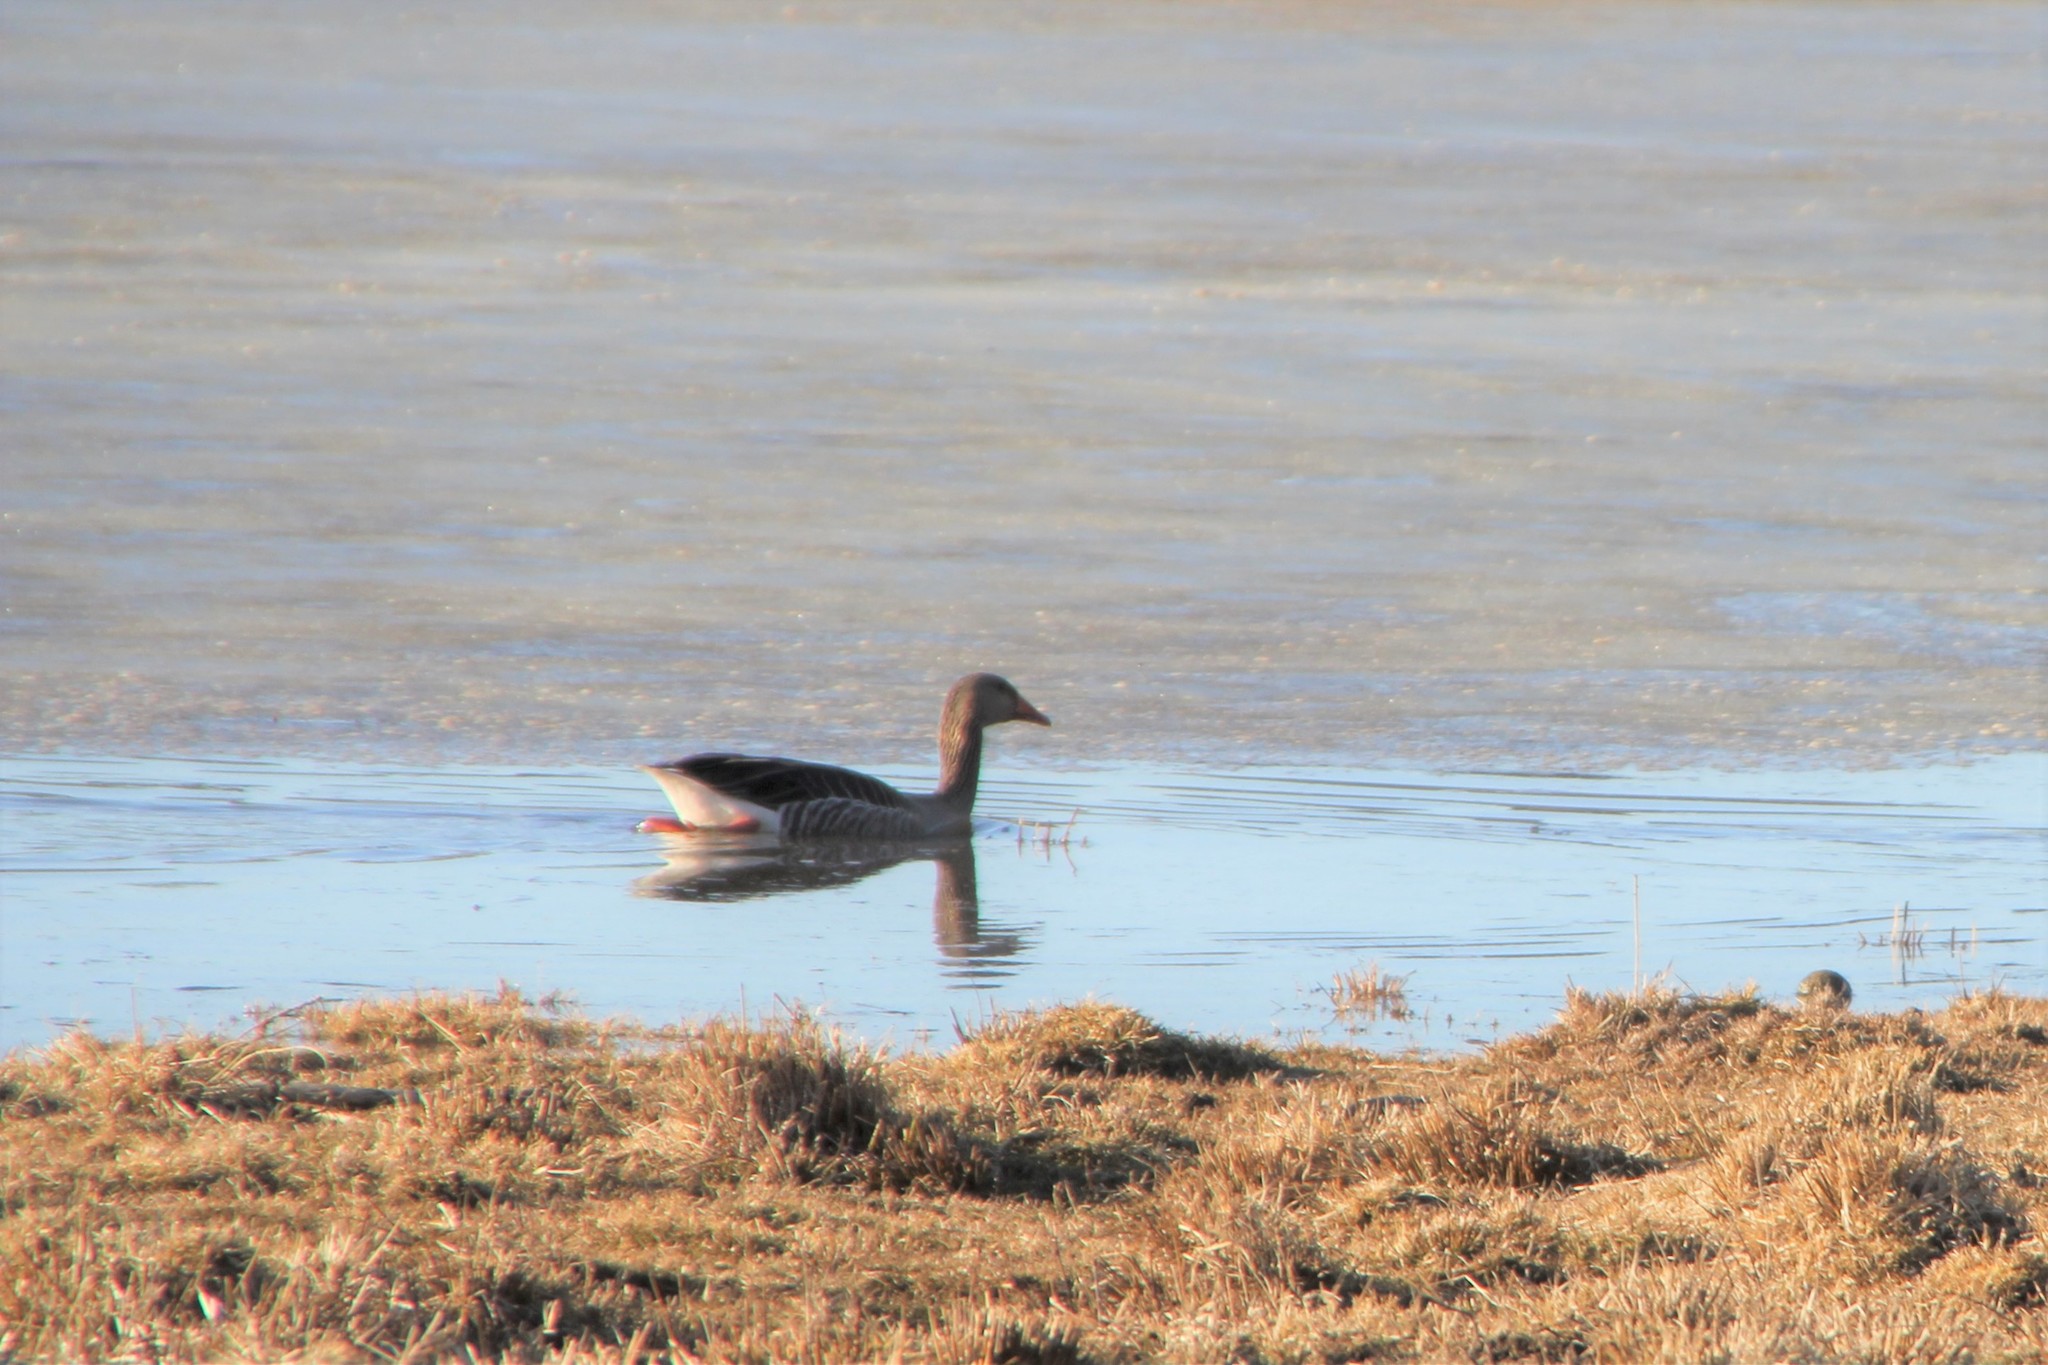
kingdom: Animalia
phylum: Chordata
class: Aves
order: Anseriformes
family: Anatidae
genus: Anser
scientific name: Anser anser
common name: Greylag goose
